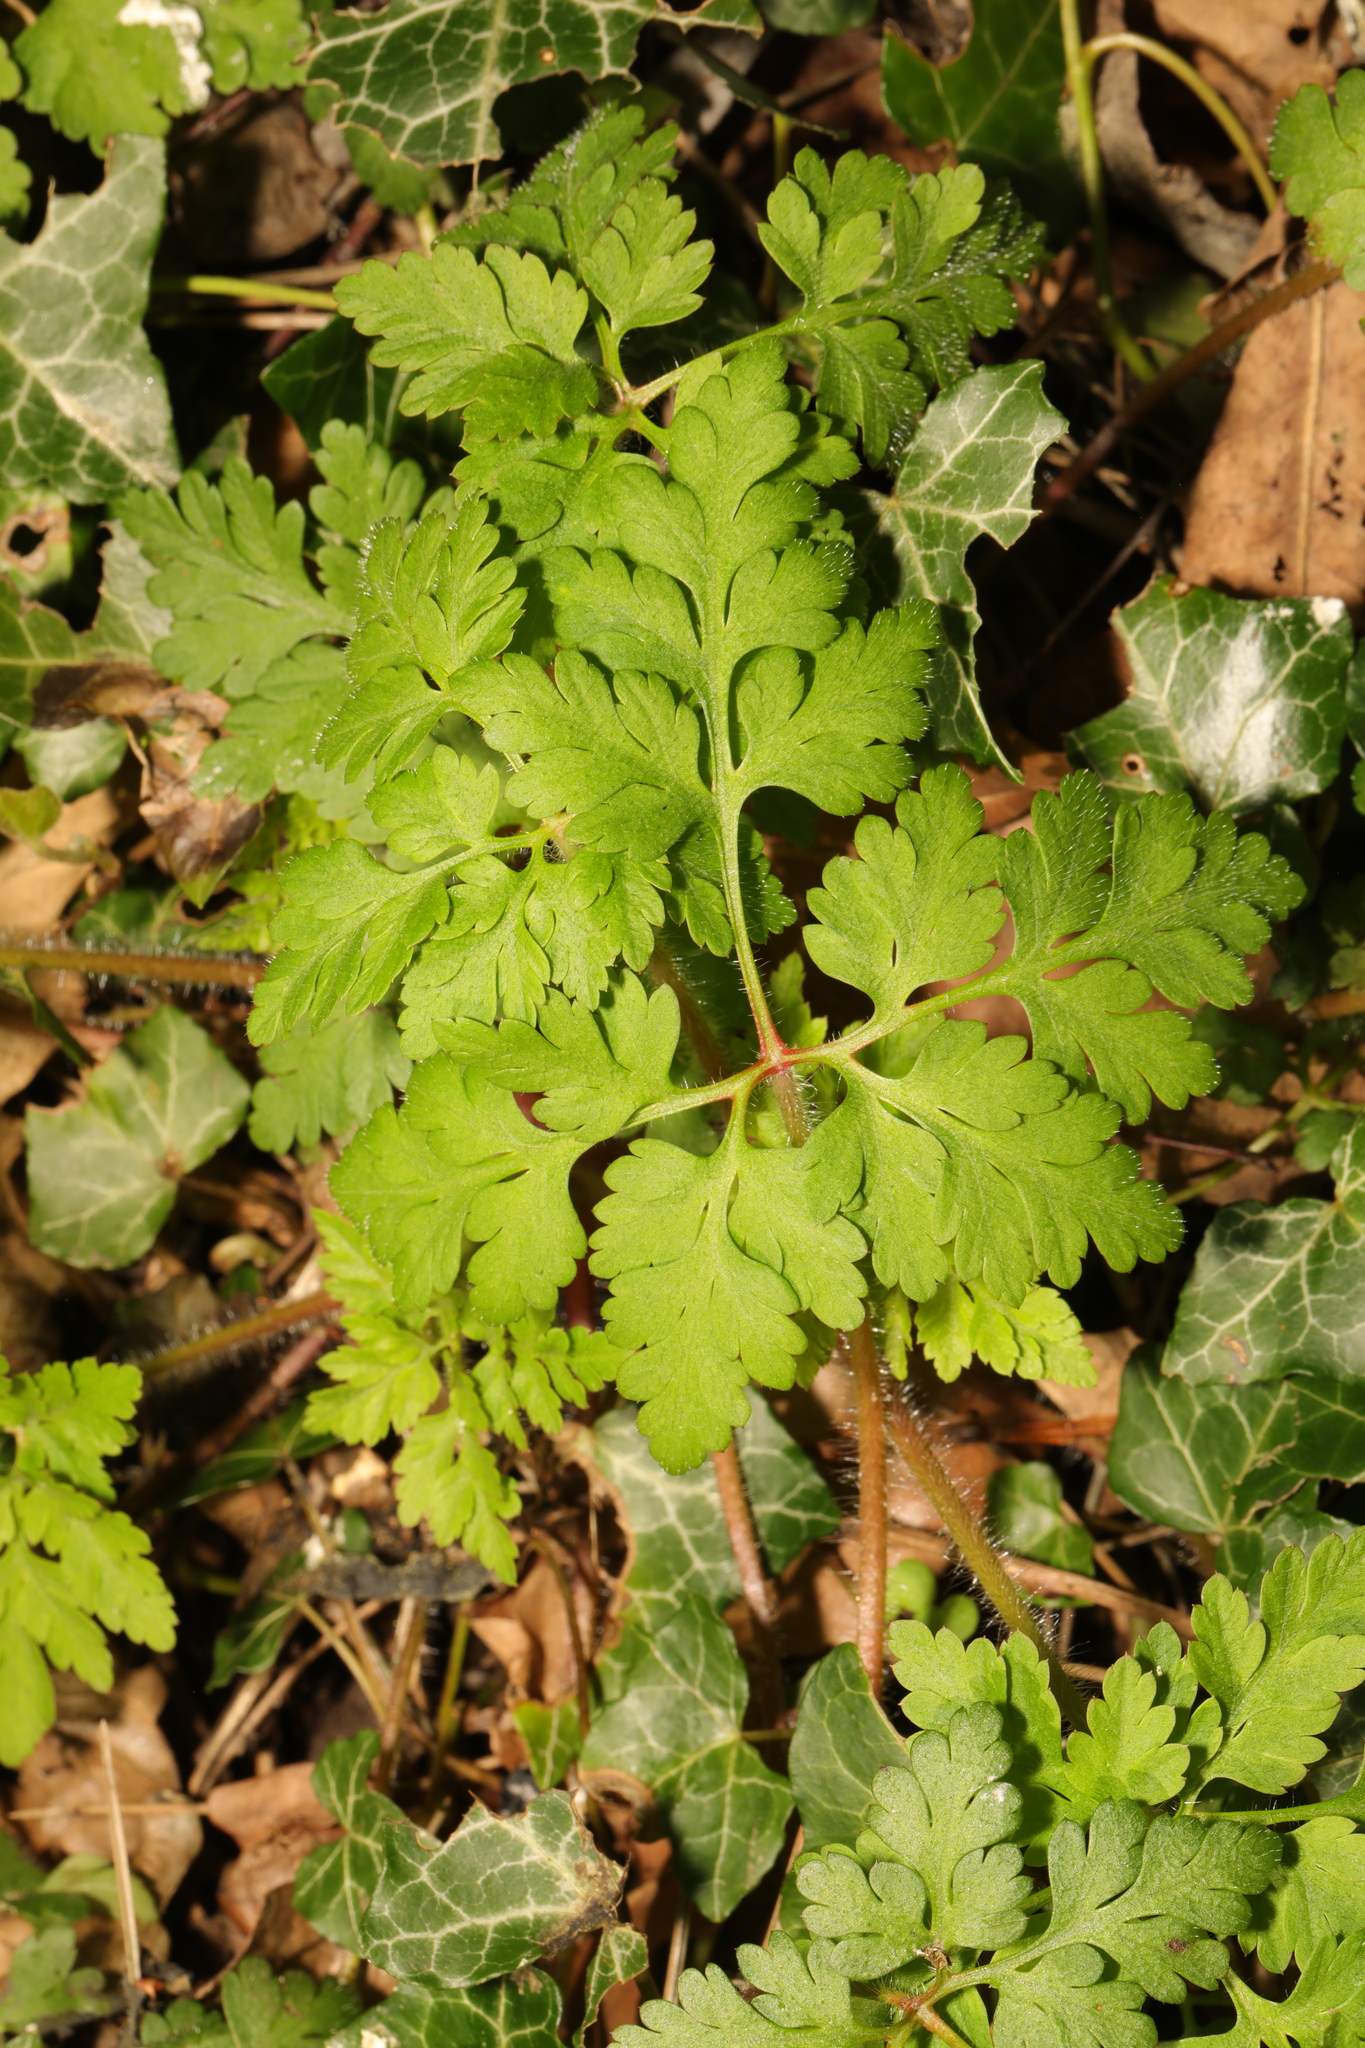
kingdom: Plantae
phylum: Tracheophyta
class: Magnoliopsida
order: Geraniales
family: Geraniaceae
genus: Geranium
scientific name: Geranium robertianum
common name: Herb-robert
